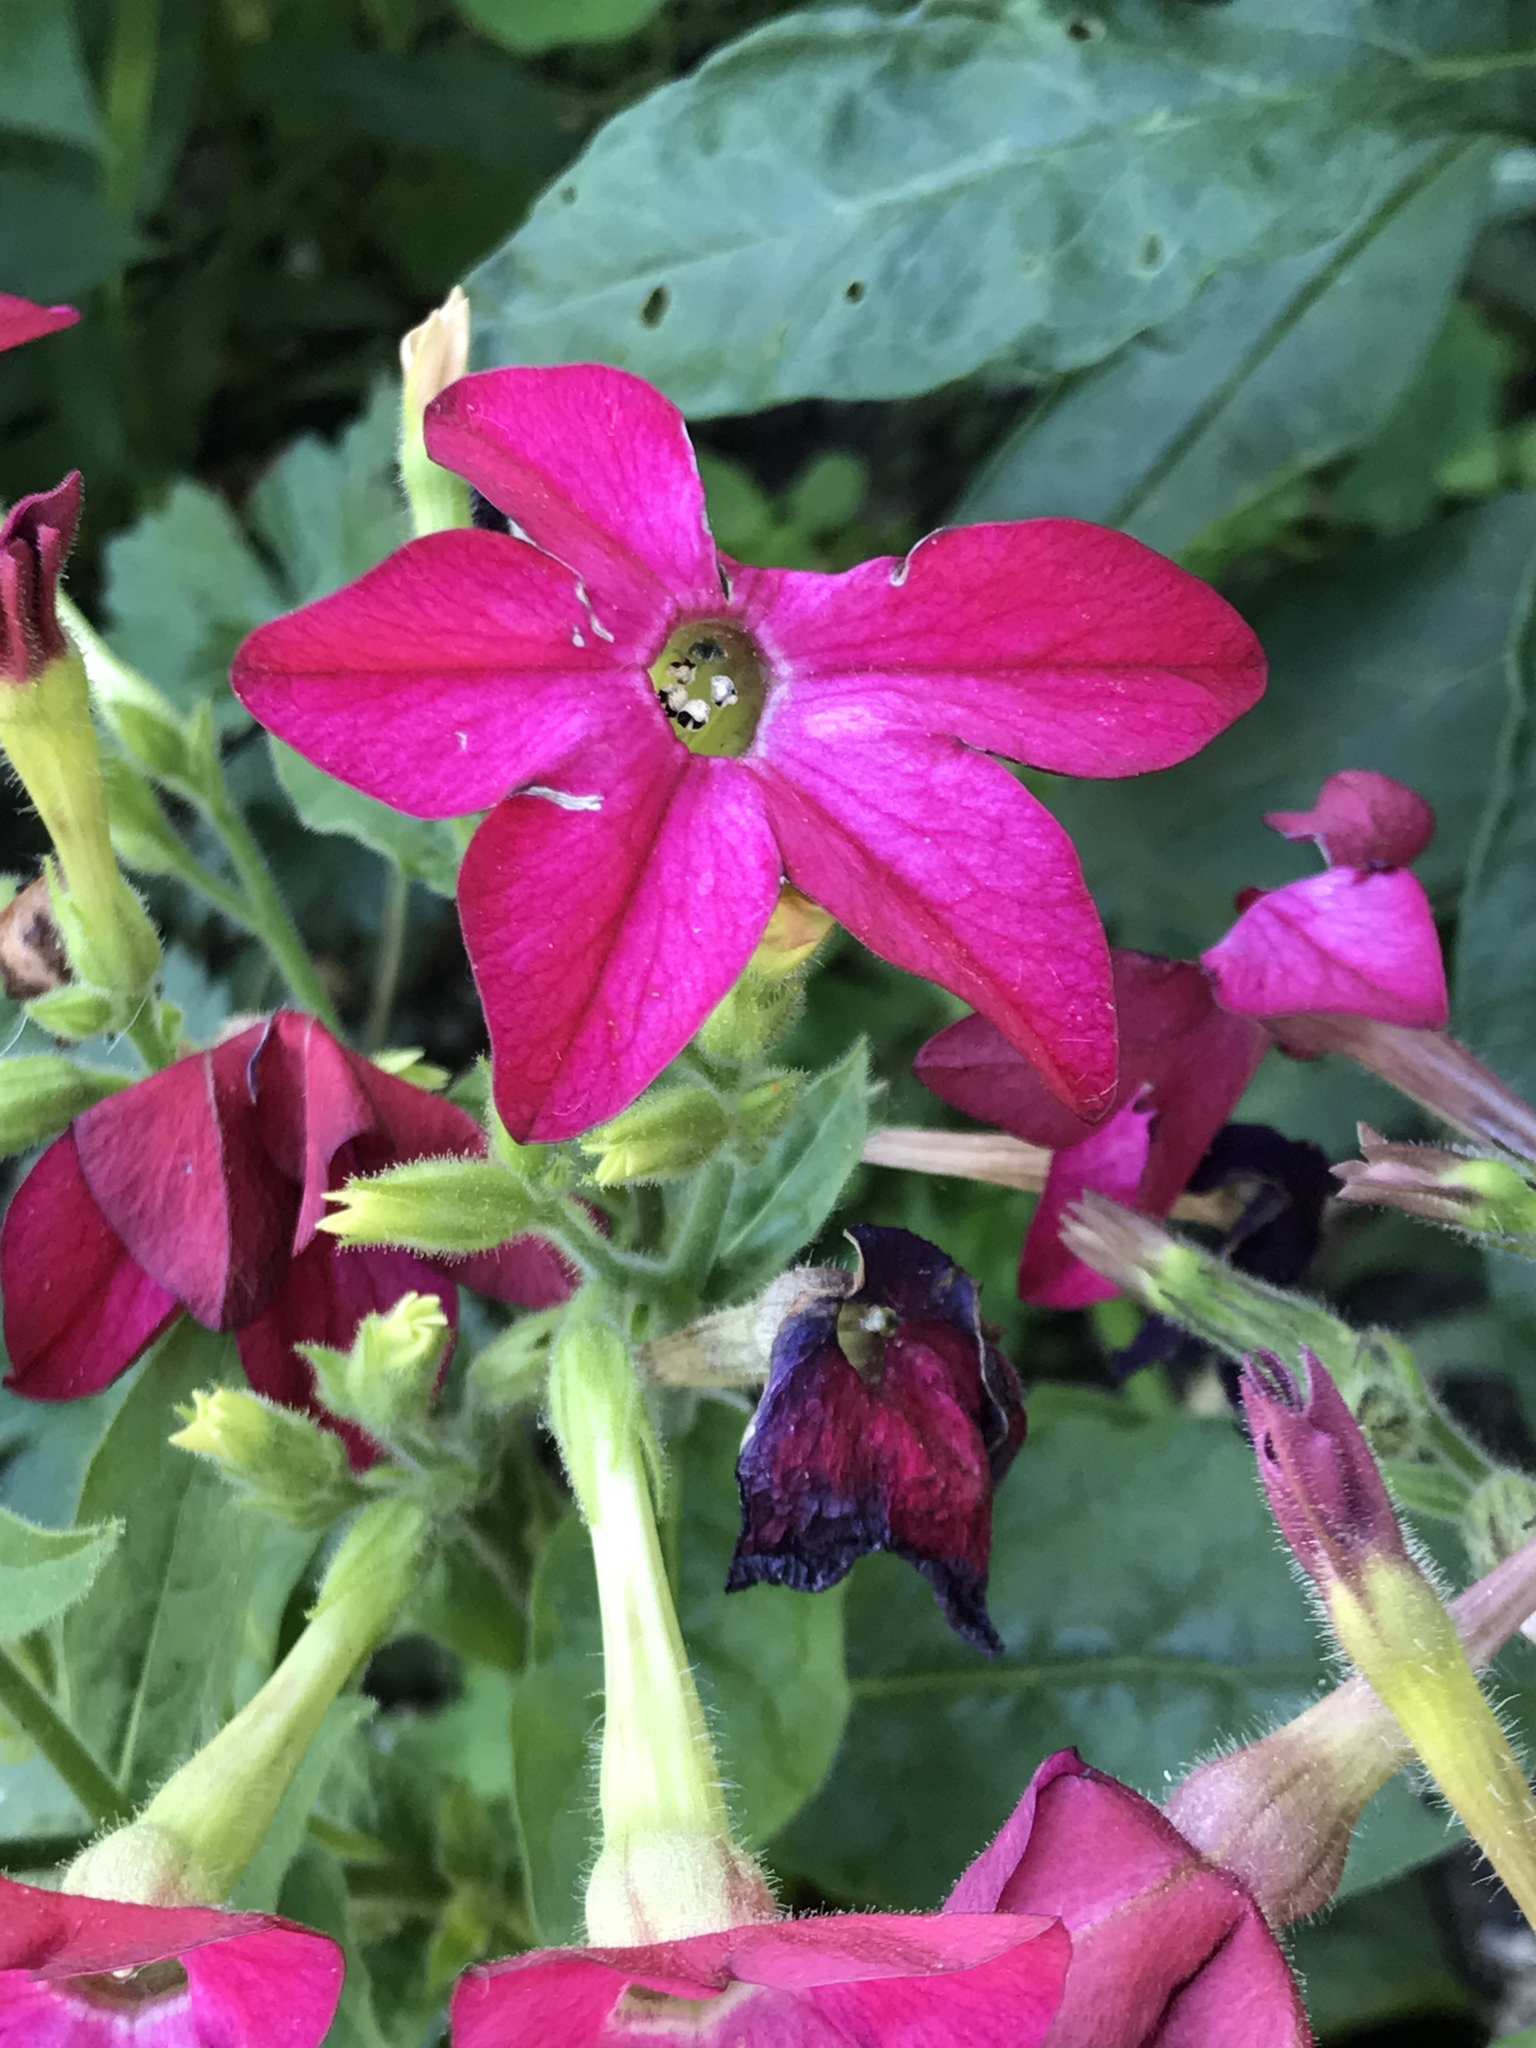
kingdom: Plantae
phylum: Tracheophyta
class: Magnoliopsida
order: Solanales
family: Solanaceae
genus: Nicotiana
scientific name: Nicotiana sanderi
